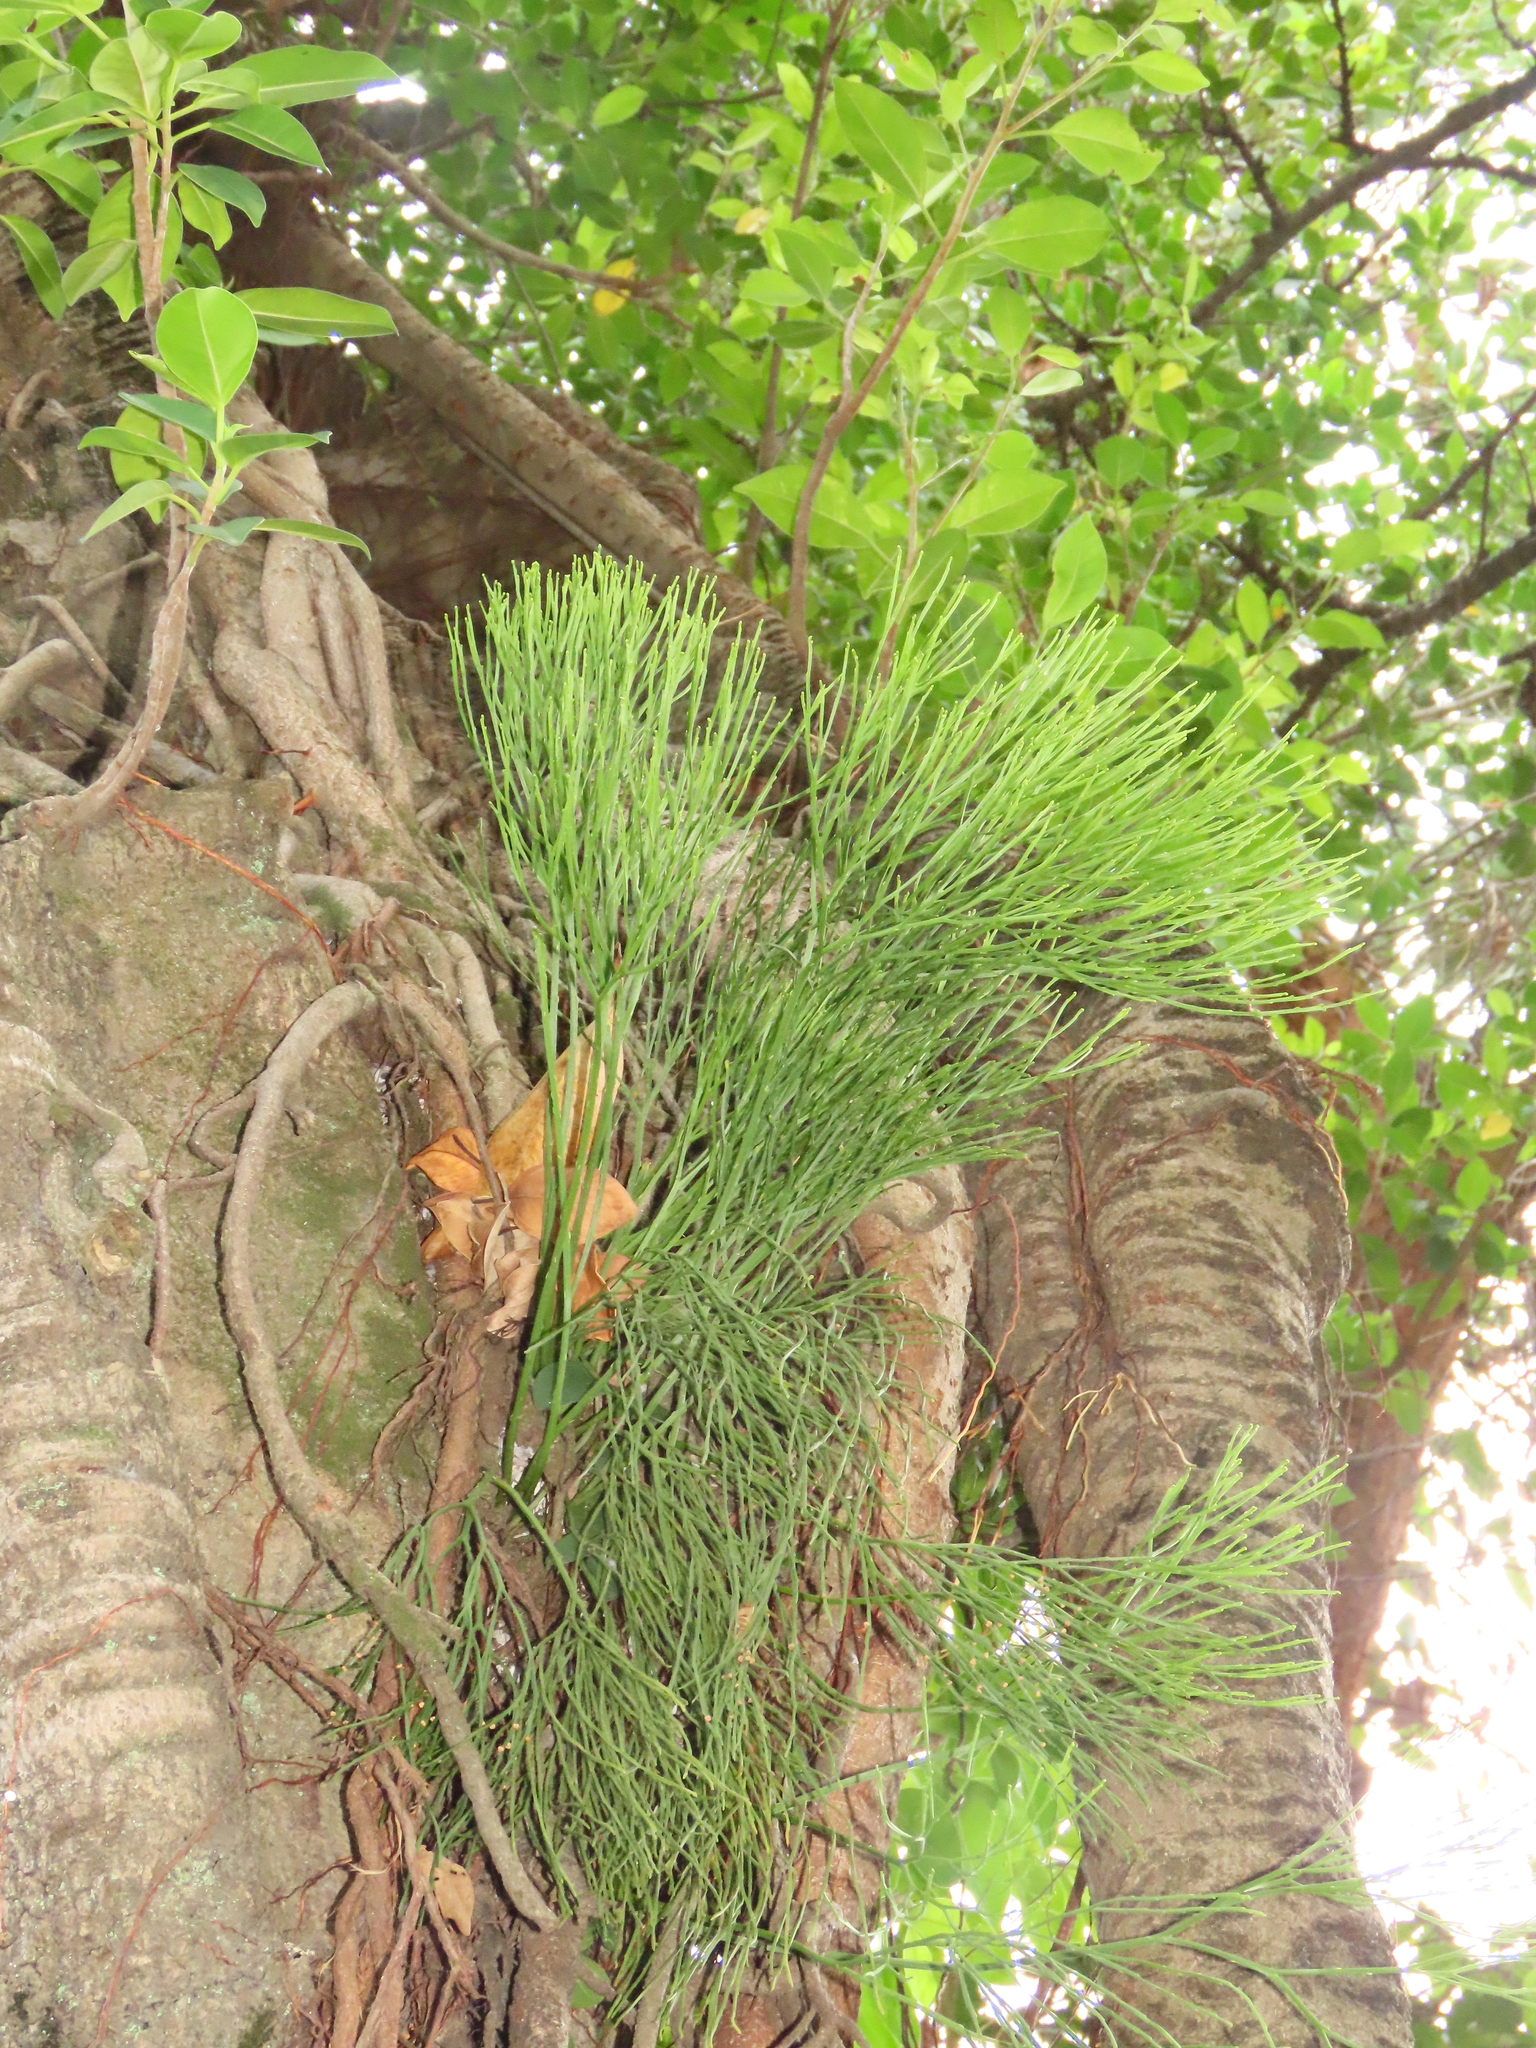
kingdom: Plantae
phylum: Tracheophyta
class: Polypodiopsida
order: Psilotales
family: Psilotaceae
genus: Psilotum
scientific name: Psilotum nudum
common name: Skeleton fork fern
